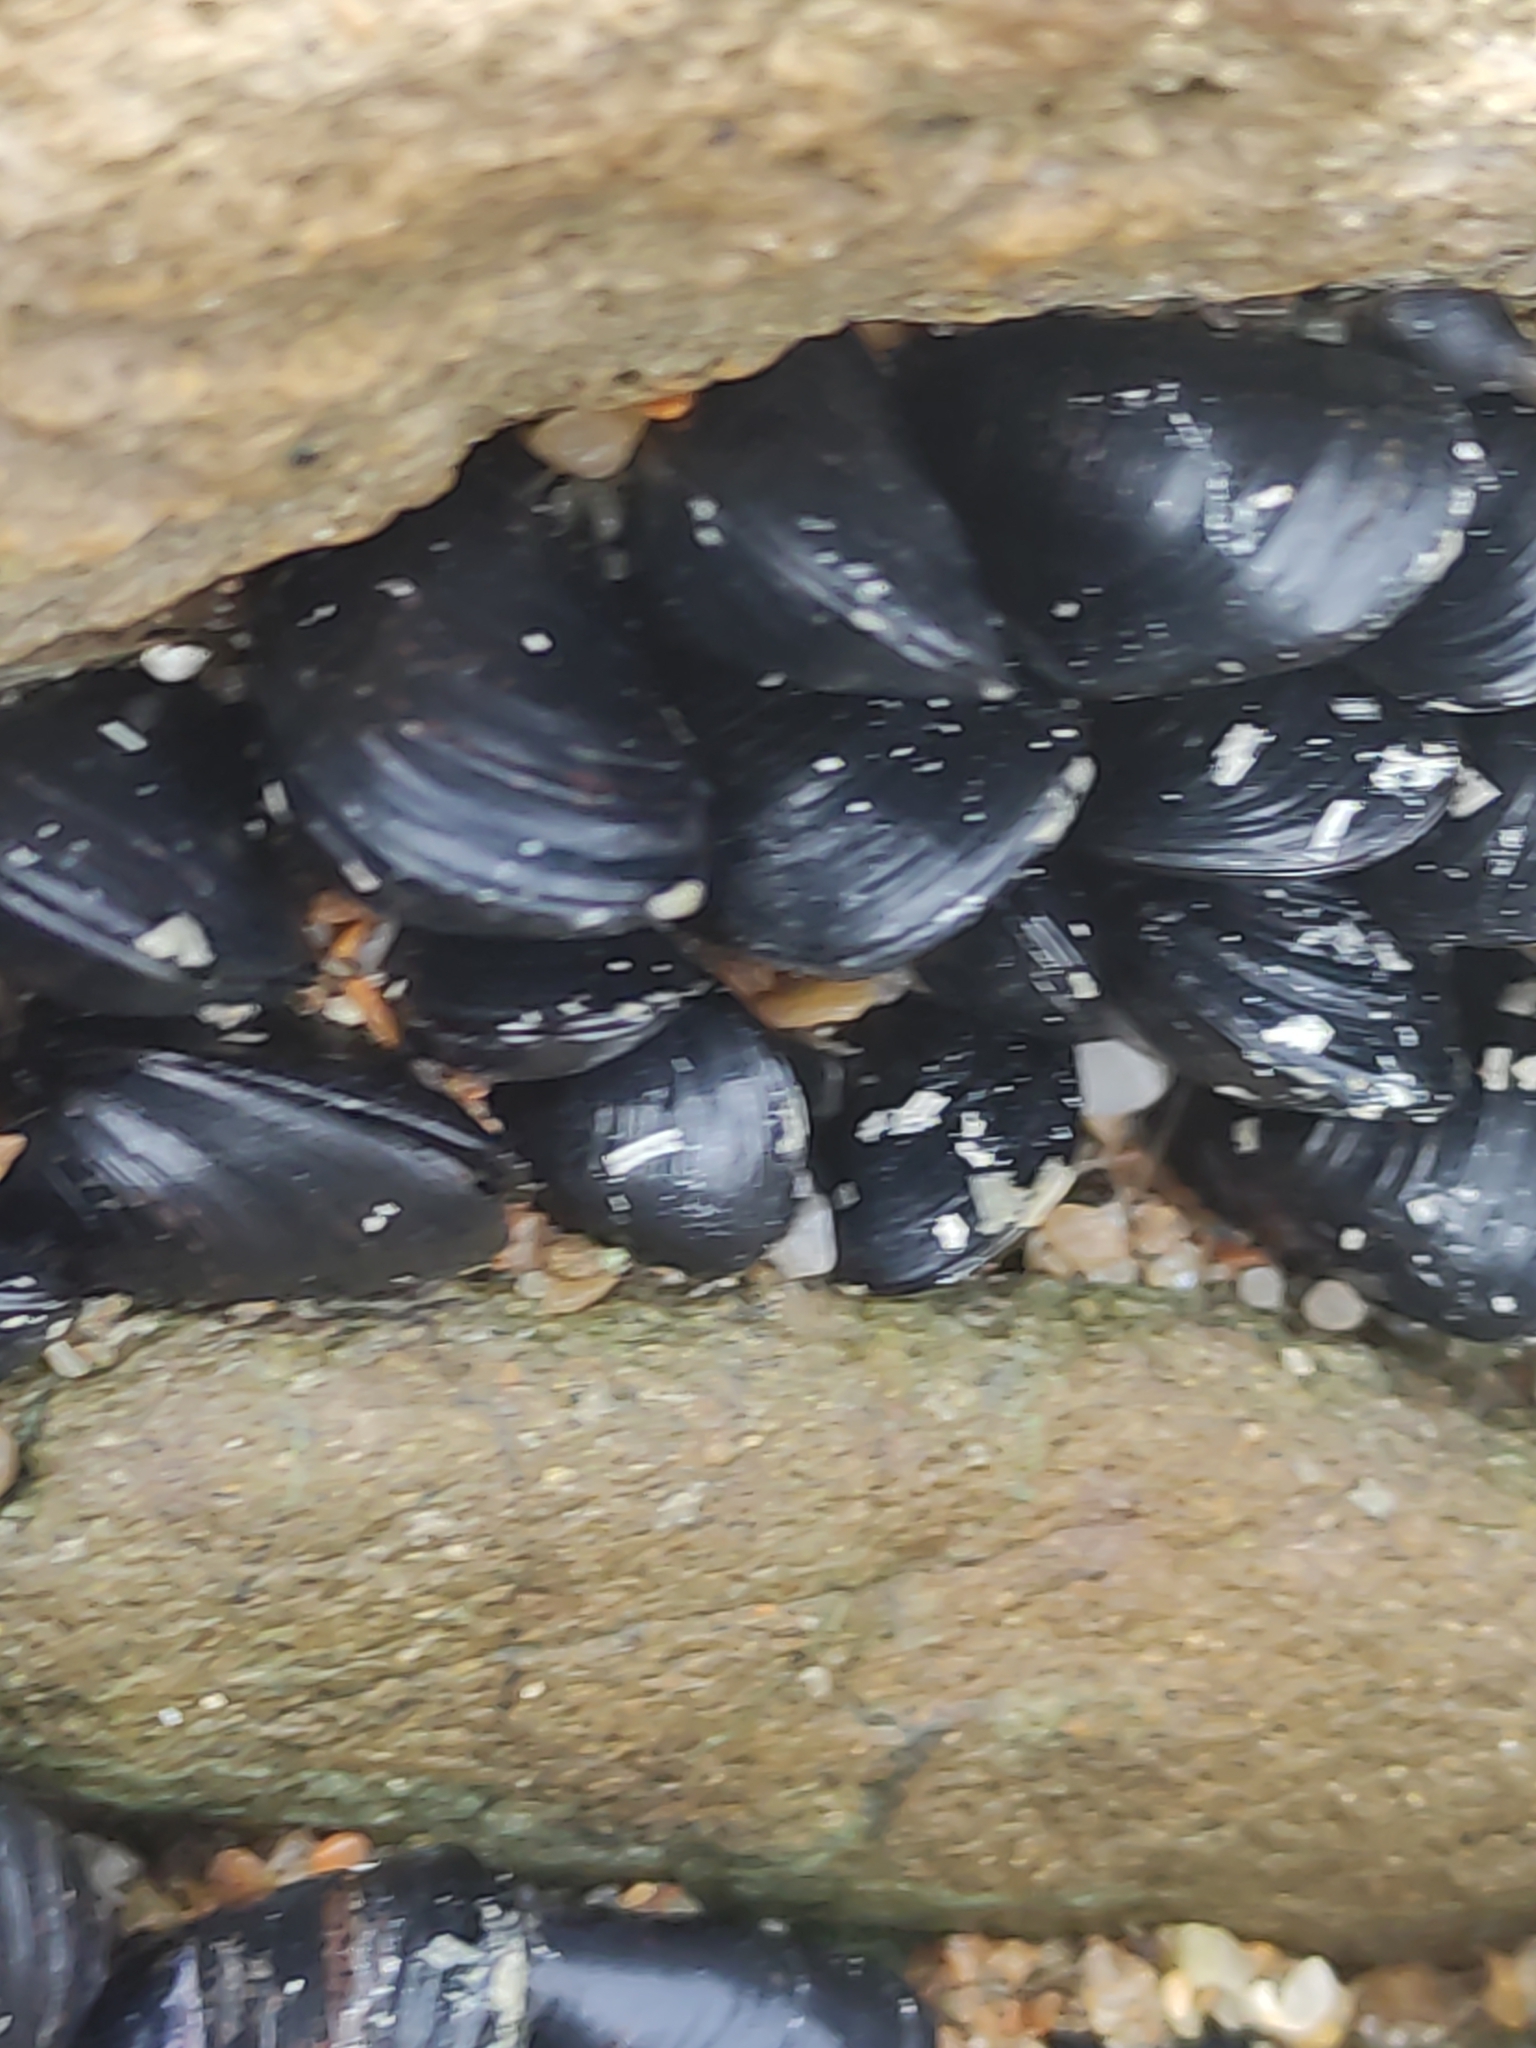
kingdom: Animalia
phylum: Mollusca
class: Bivalvia
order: Mytilida
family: Mytilidae
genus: Xenostrobus
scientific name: Xenostrobus neozelanicus
